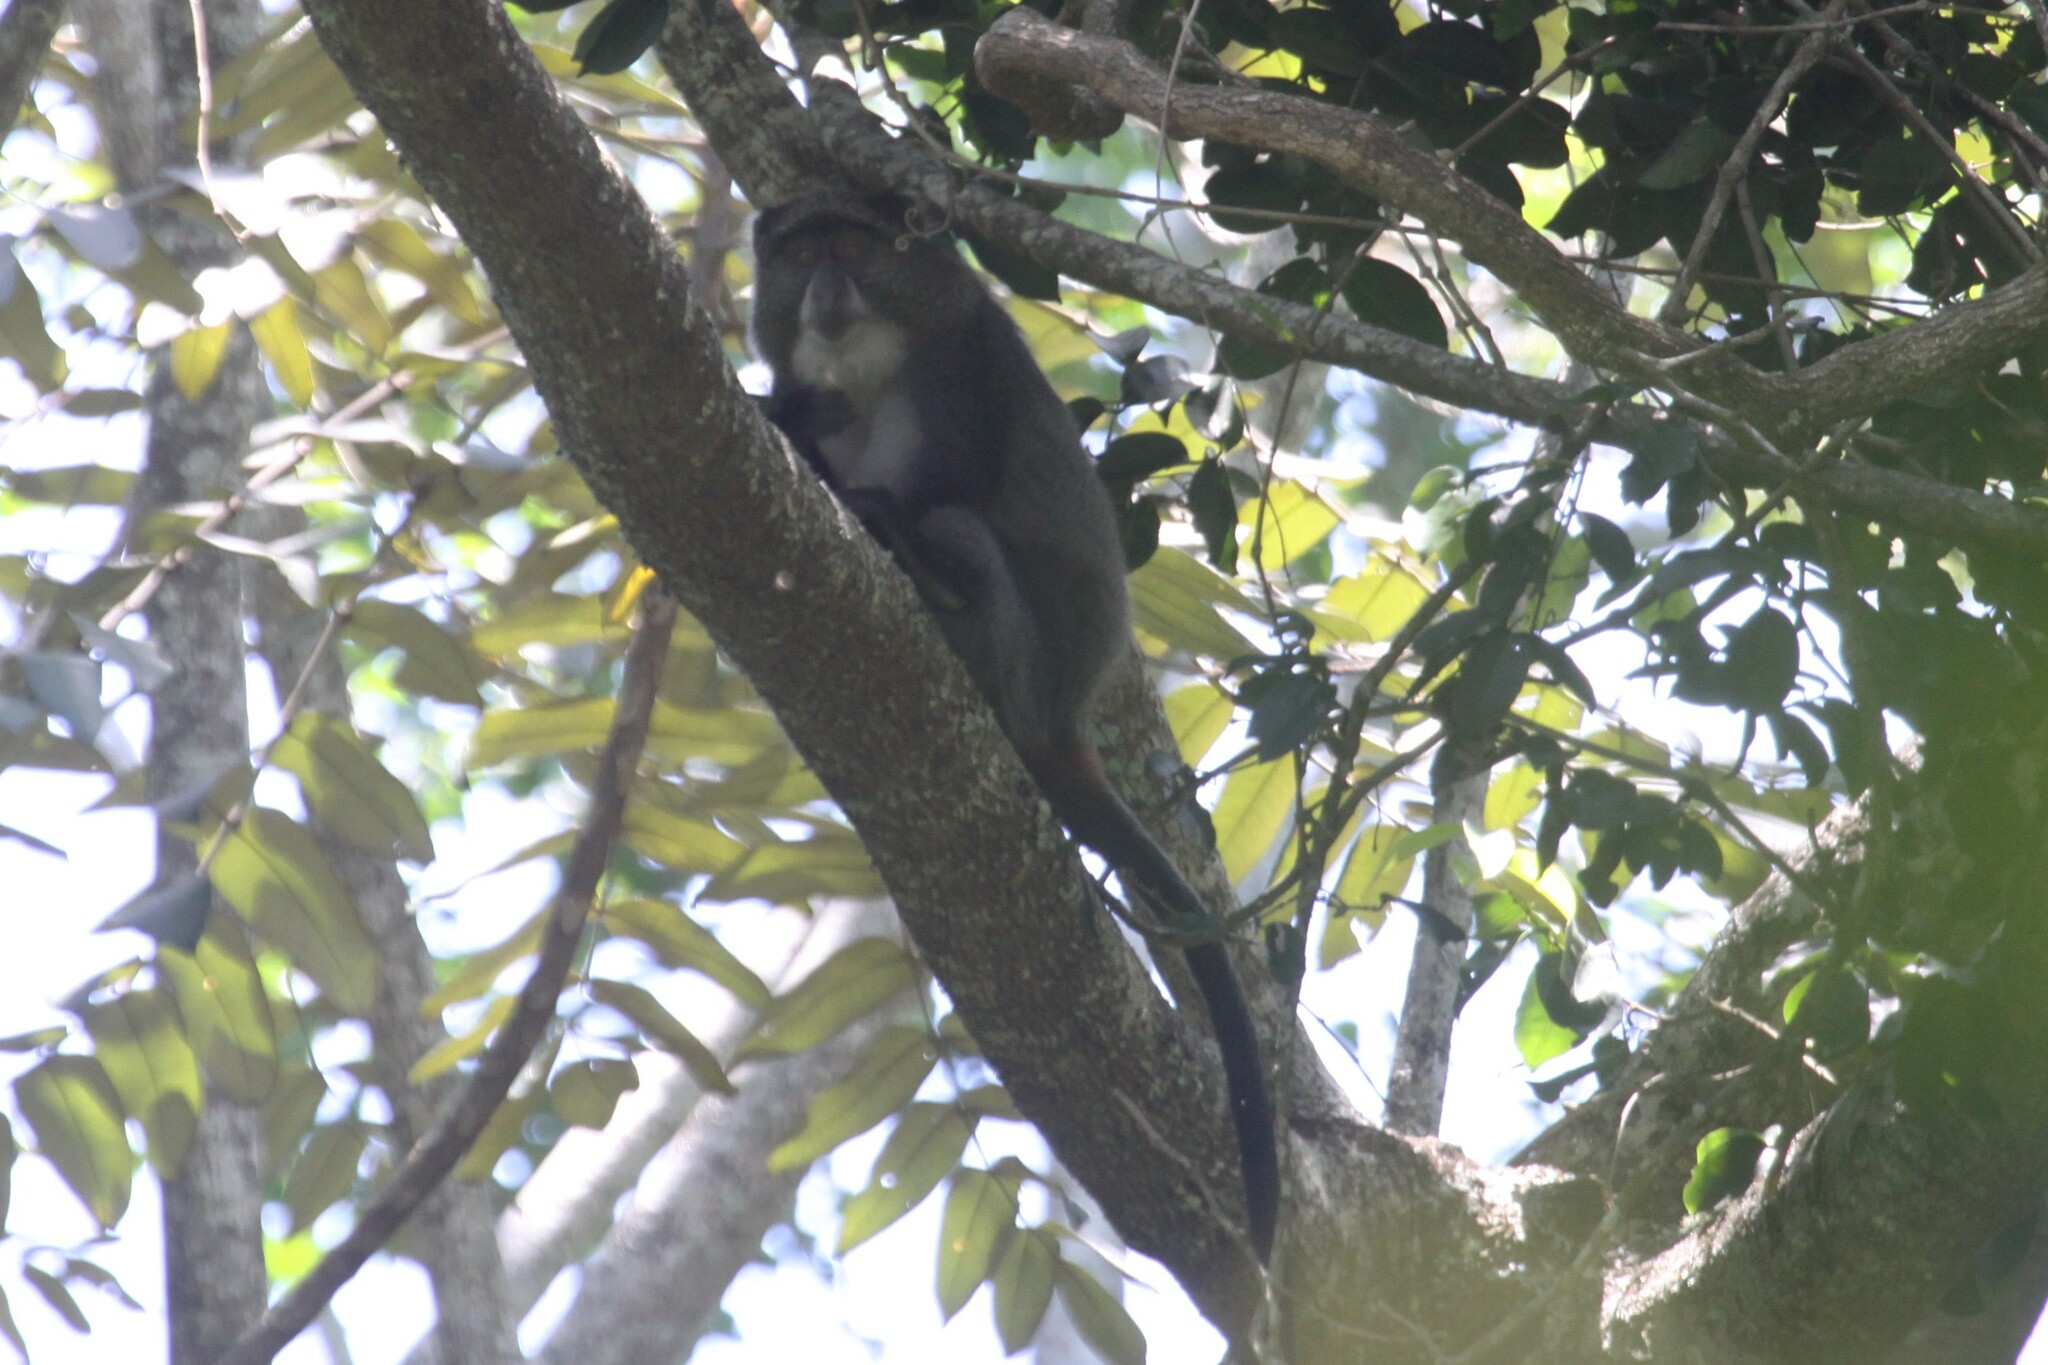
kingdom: Animalia
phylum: Chordata
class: Mammalia
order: Primates
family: Cercopithecidae
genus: Cercopithecus
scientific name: Cercopithecus mitis
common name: Blue monkey
